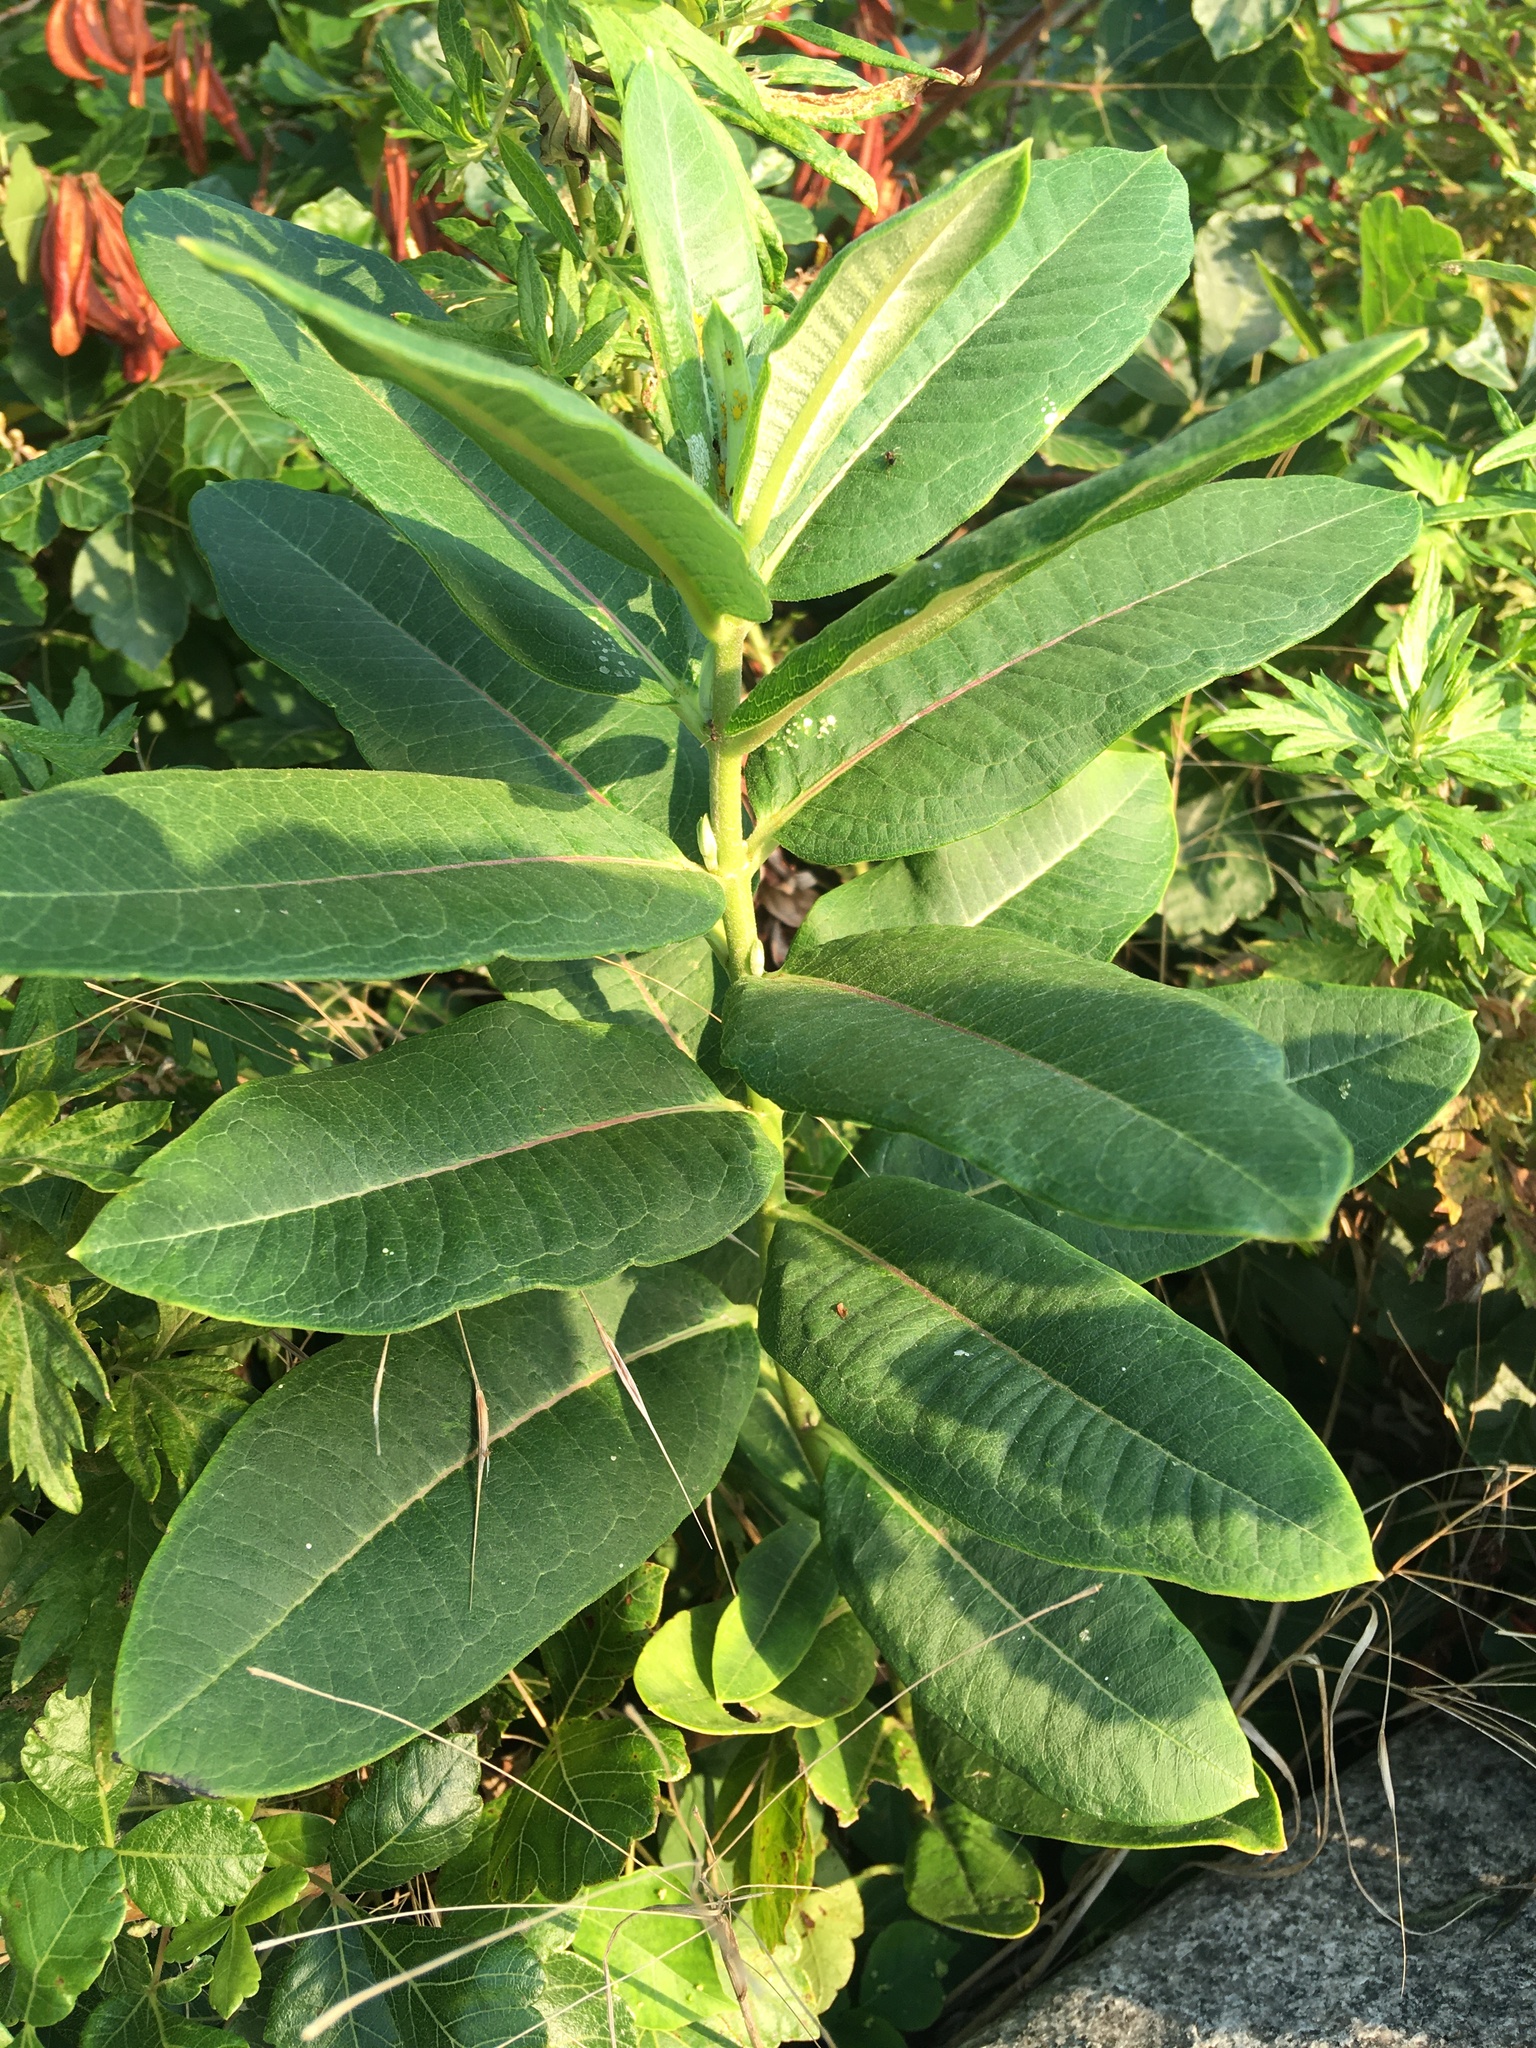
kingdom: Plantae
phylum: Tracheophyta
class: Magnoliopsida
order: Gentianales
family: Apocynaceae
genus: Asclepias
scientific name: Asclepias syriaca
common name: Common milkweed
